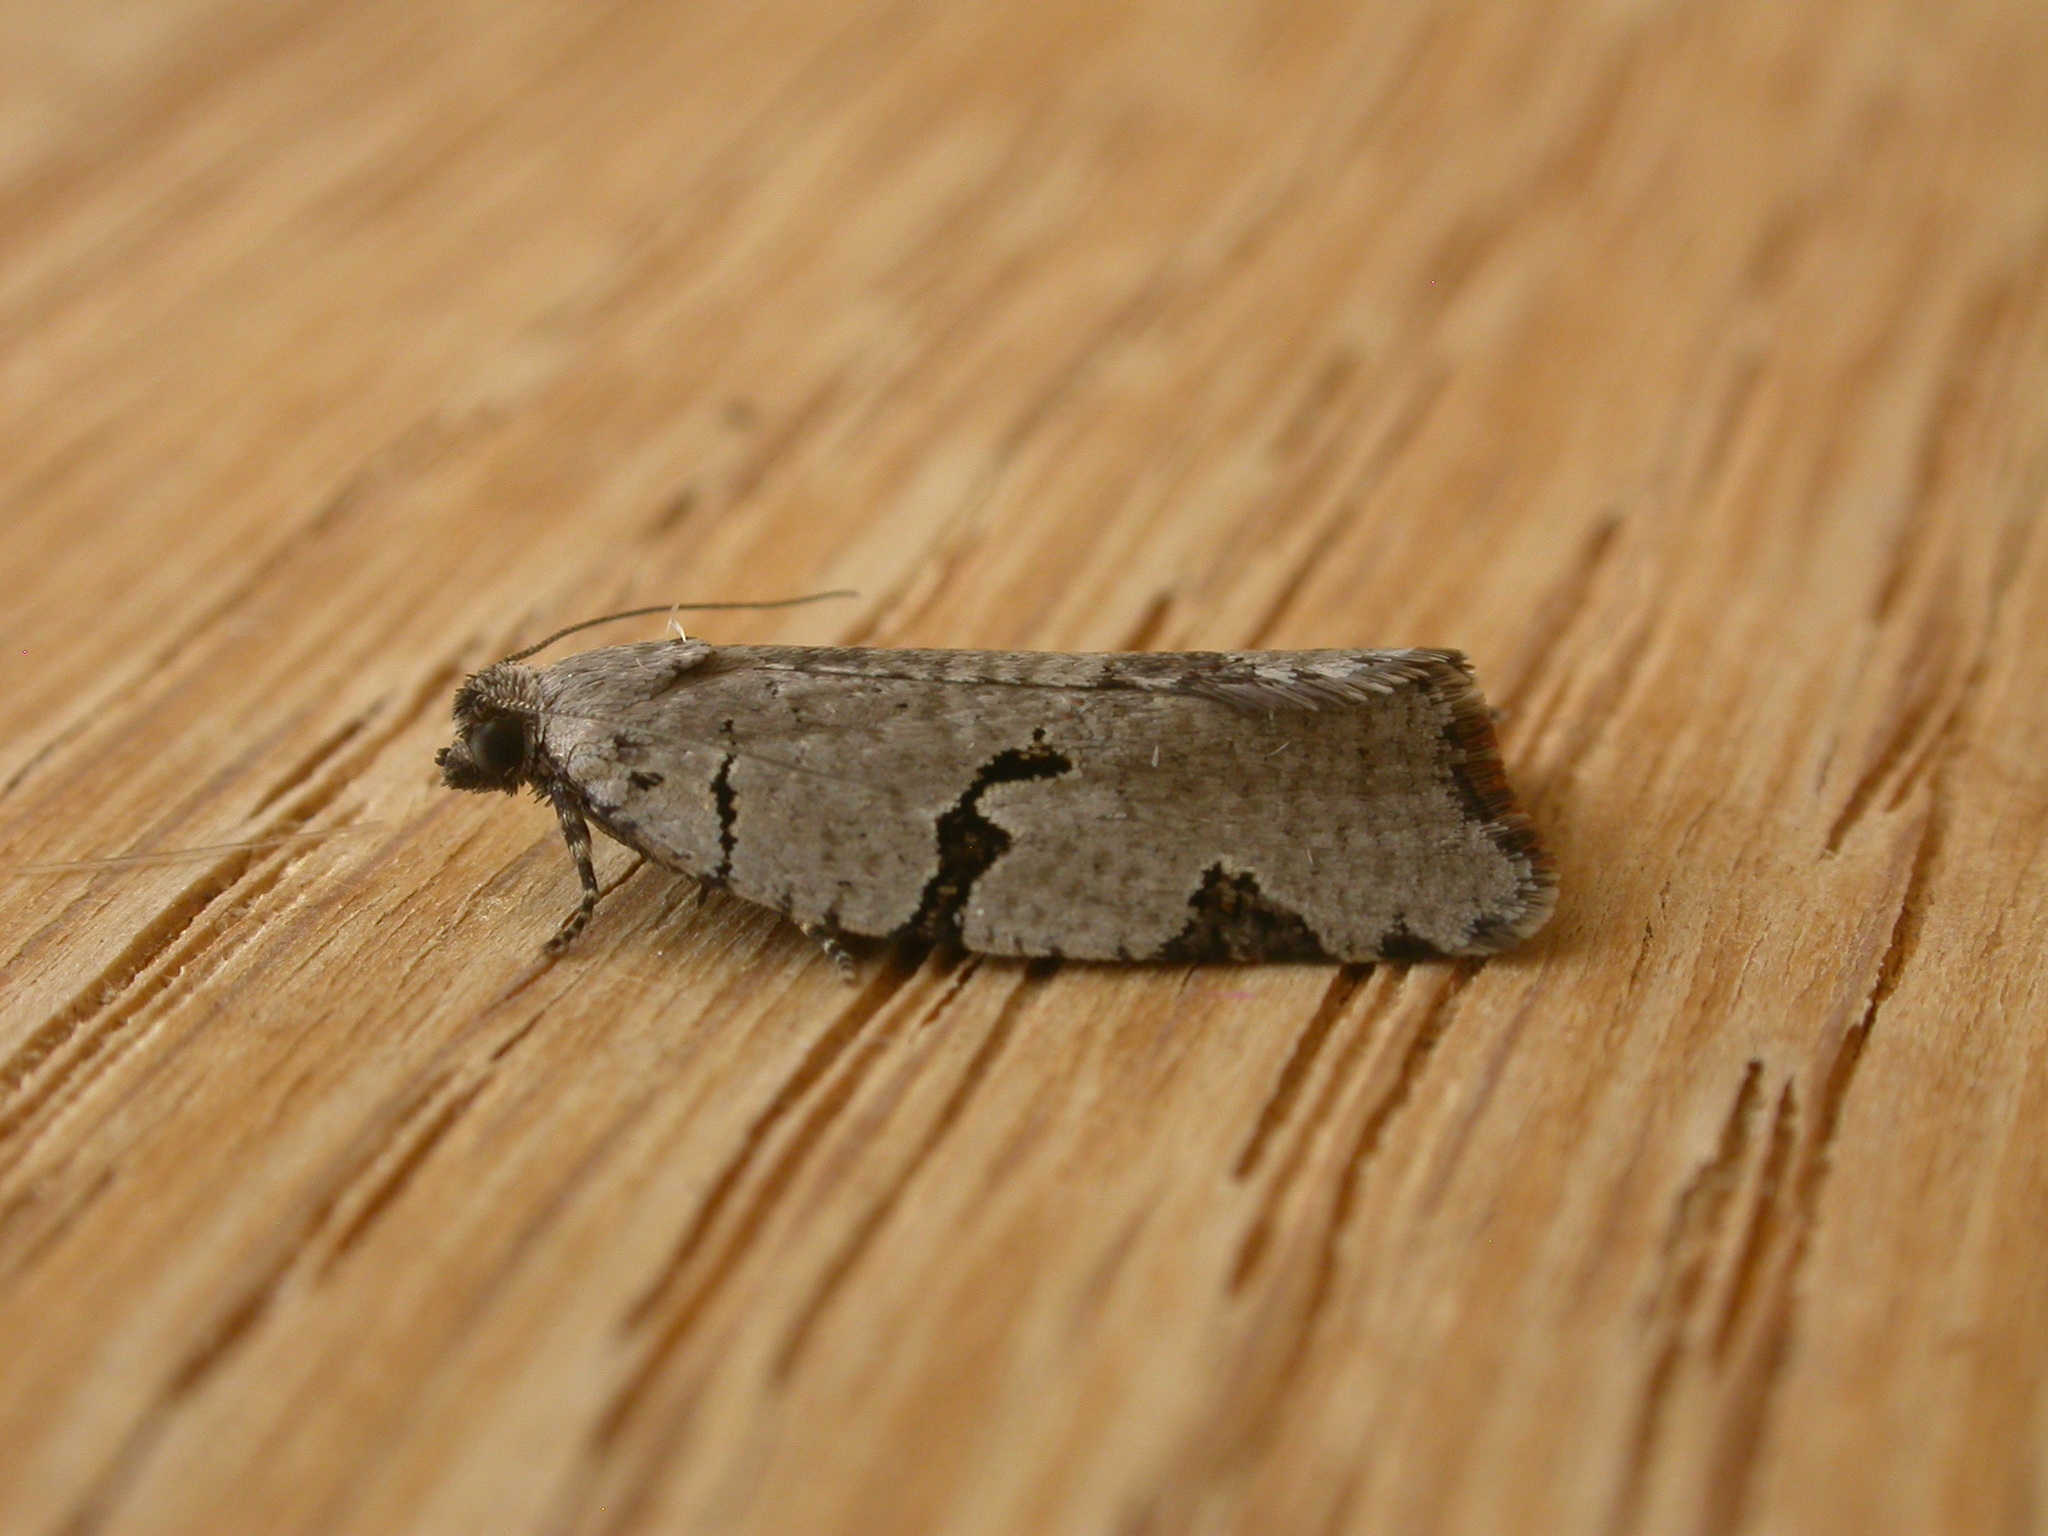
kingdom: Animalia
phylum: Arthropoda
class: Insecta
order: Lepidoptera
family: Tortricidae
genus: Meritastis
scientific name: Meritastis pyrosemana
